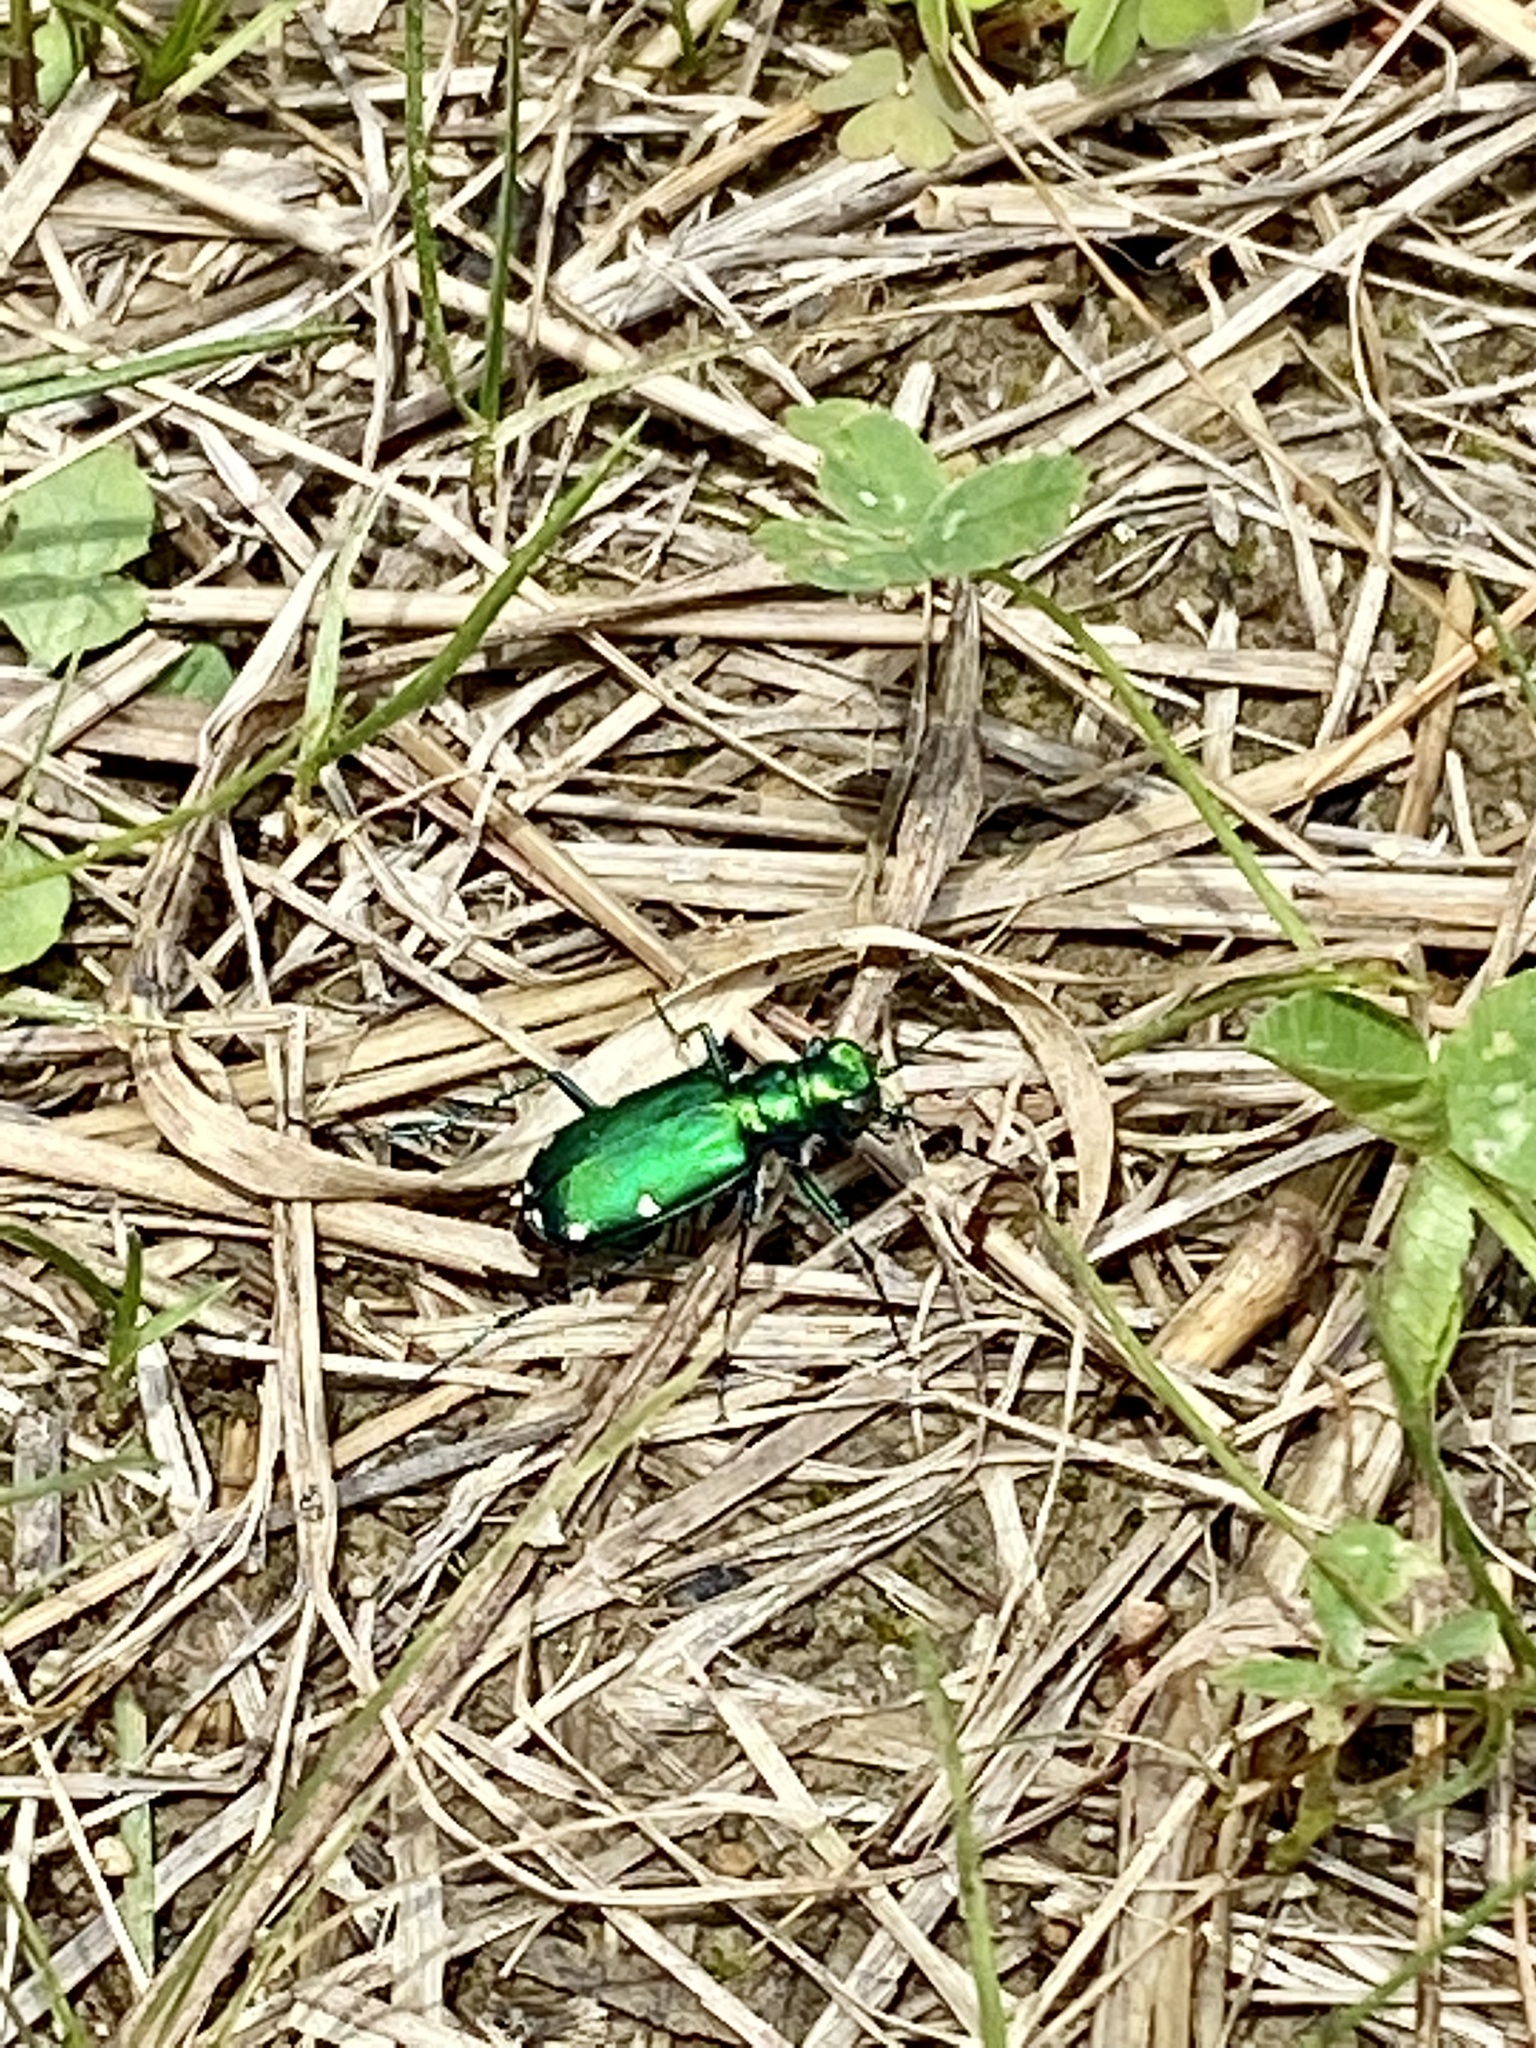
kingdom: Animalia
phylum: Arthropoda
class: Insecta
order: Coleoptera
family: Carabidae
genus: Cicindela
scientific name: Cicindela sexguttata
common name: Six-spotted tiger beetle
